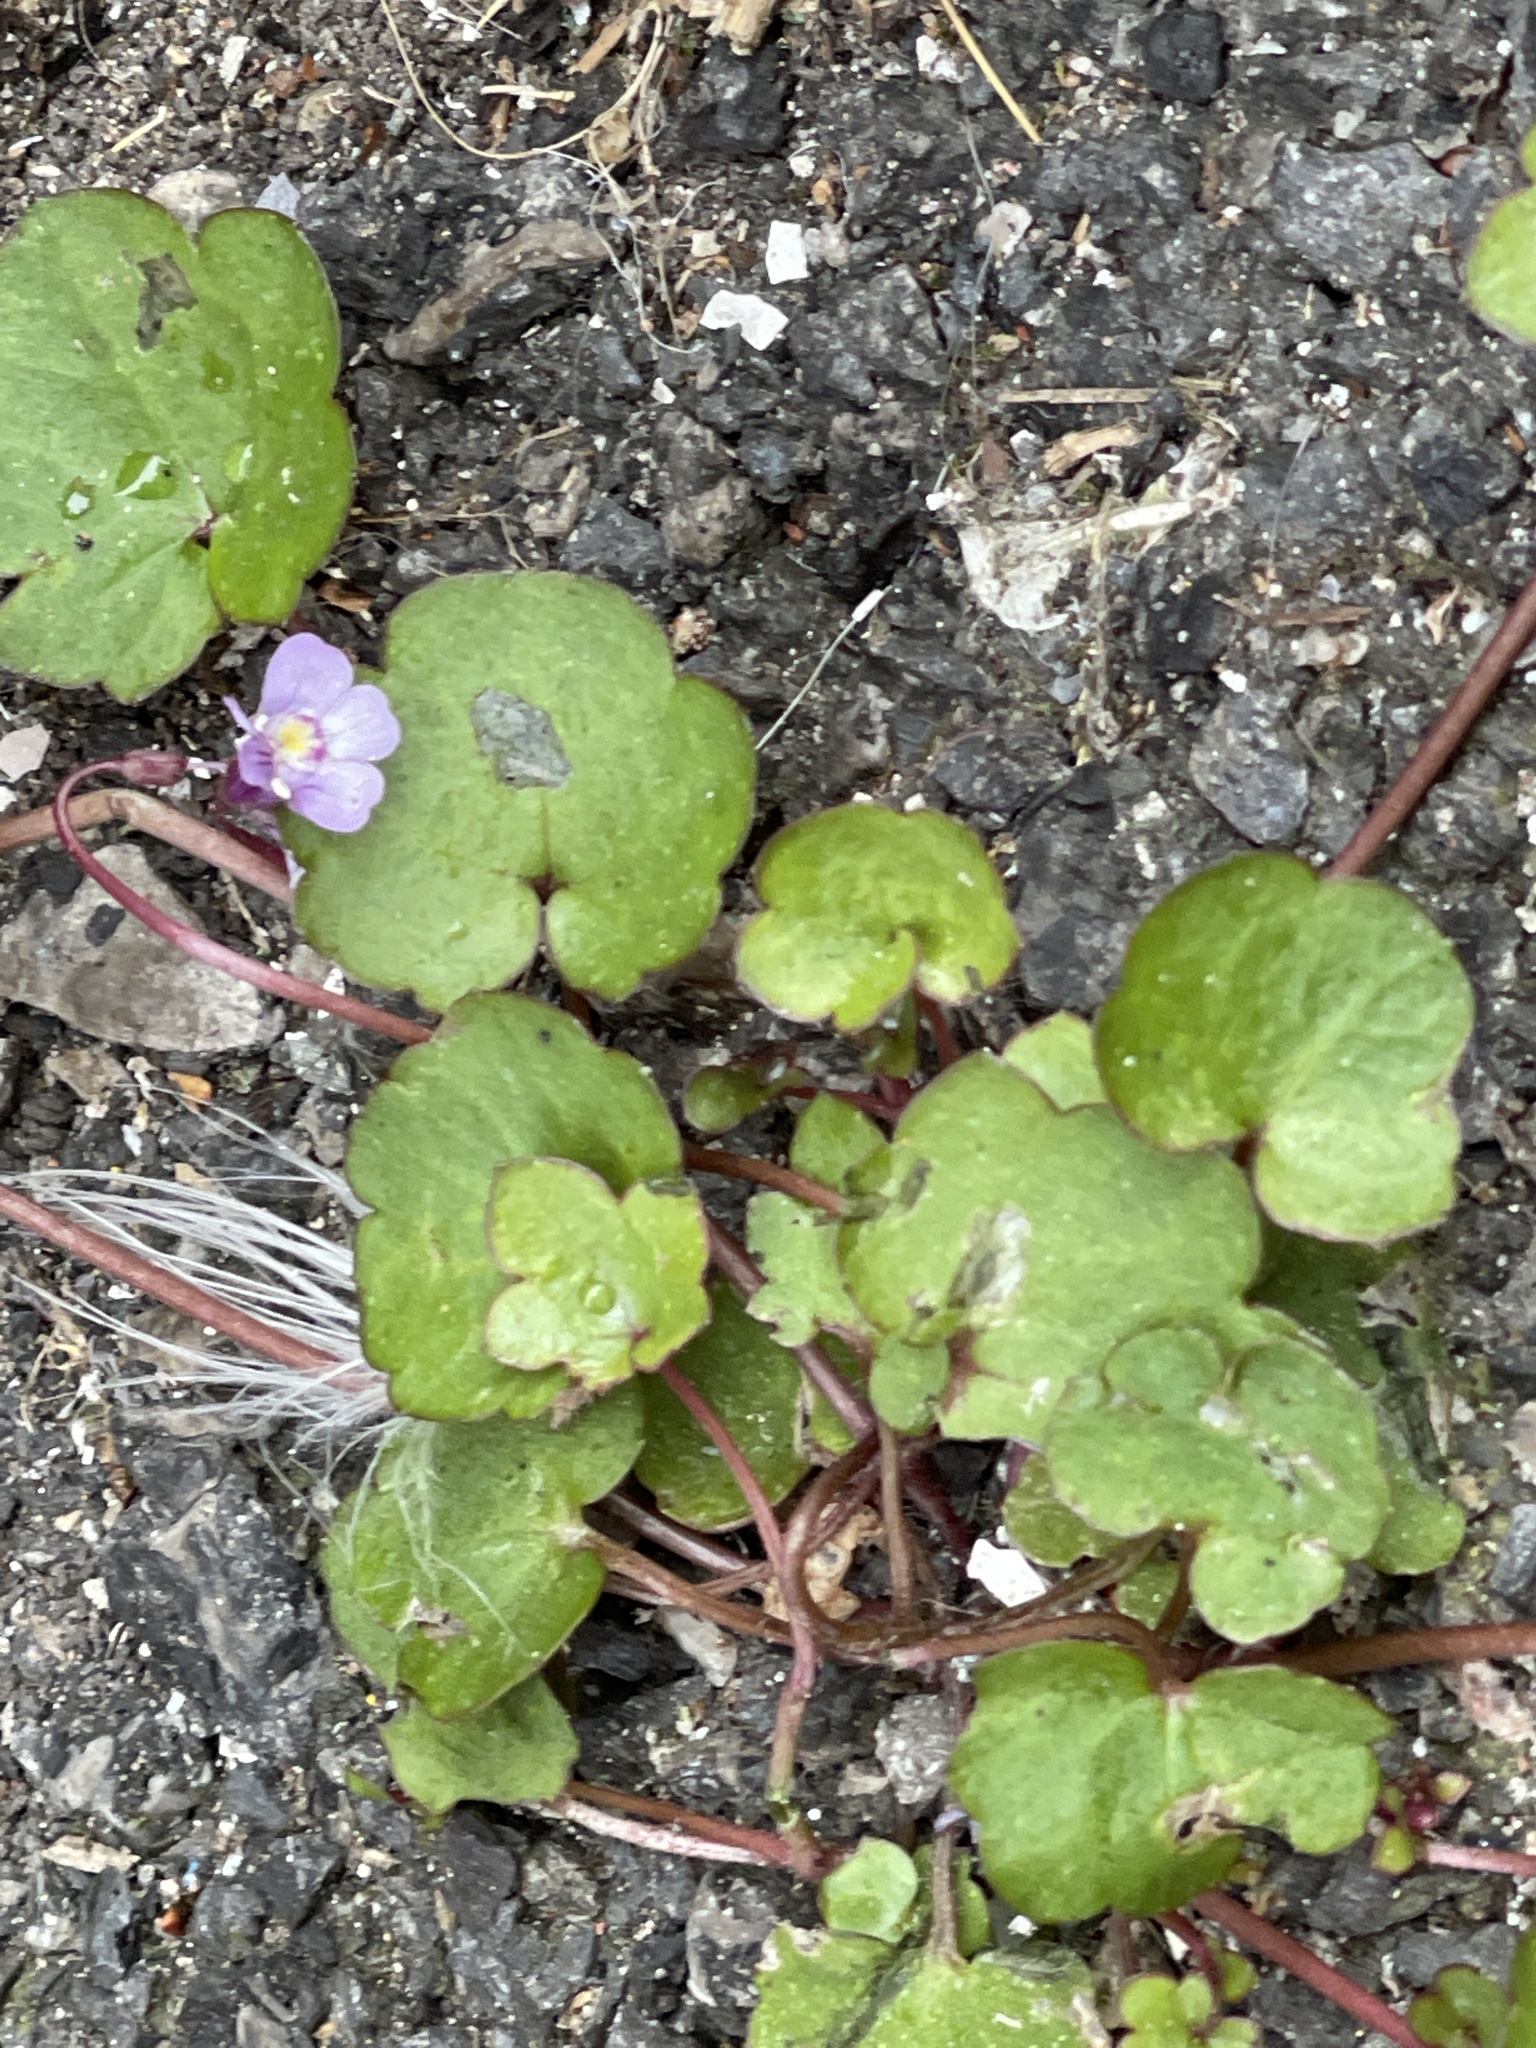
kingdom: Plantae
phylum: Tracheophyta
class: Magnoliopsida
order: Lamiales
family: Plantaginaceae
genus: Cymbalaria
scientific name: Cymbalaria muralis
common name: Ivy-leaved toadflax
